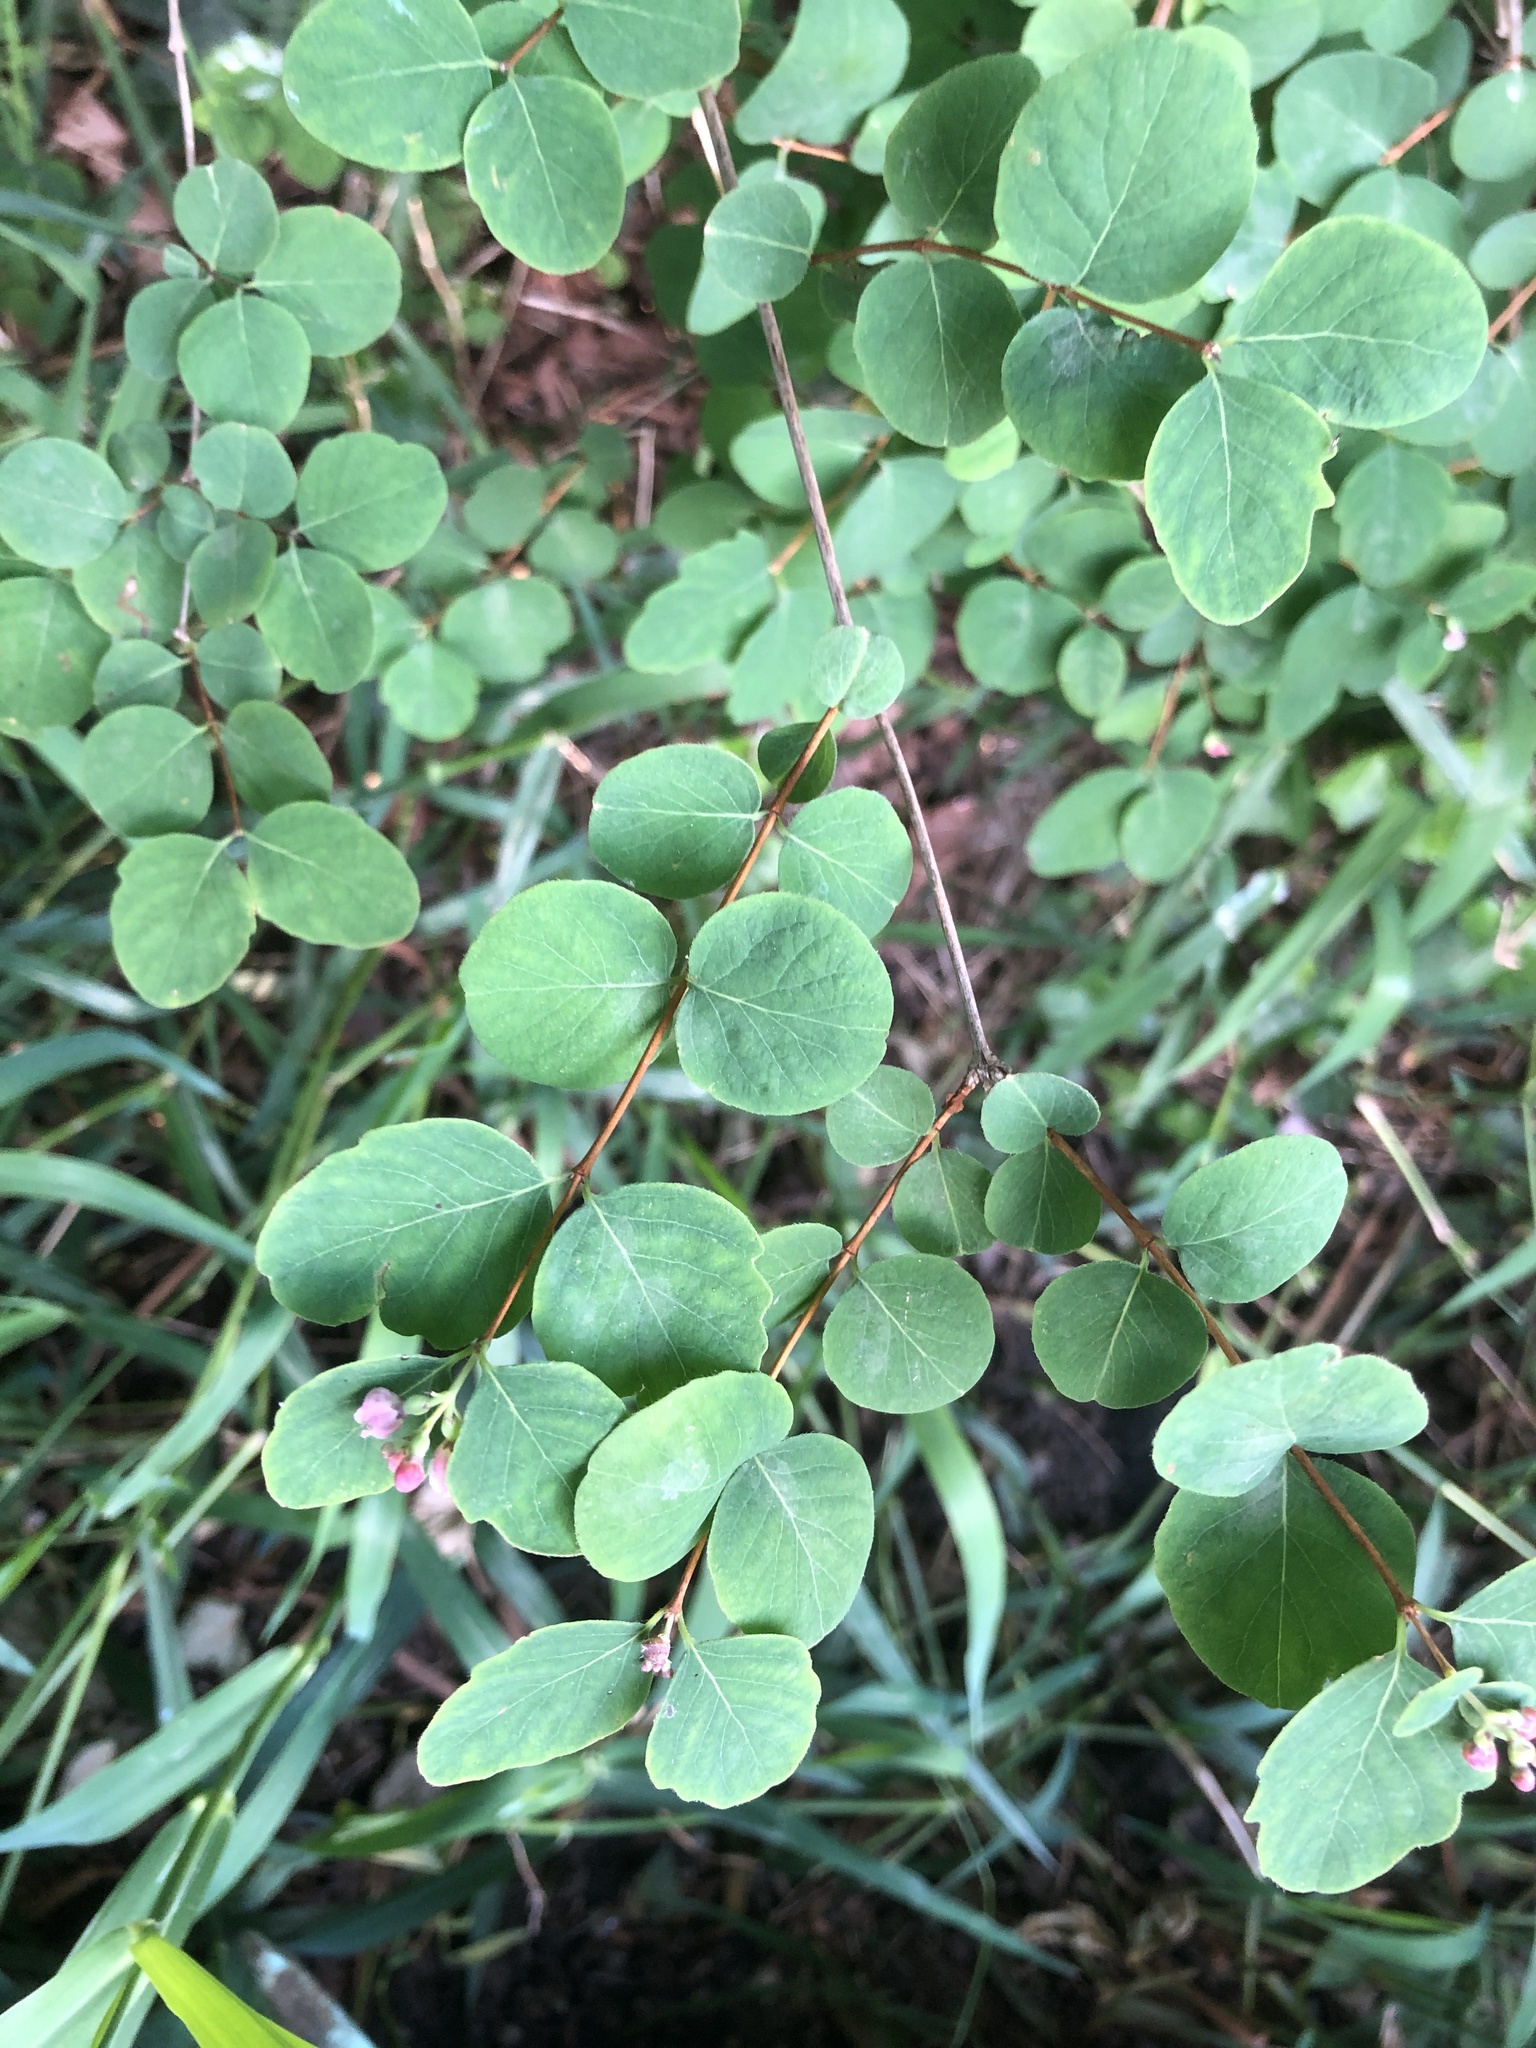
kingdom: Plantae
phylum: Tracheophyta
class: Magnoliopsida
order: Dipsacales
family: Caprifoliaceae
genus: Symphoricarpos
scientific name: Symphoricarpos albus
